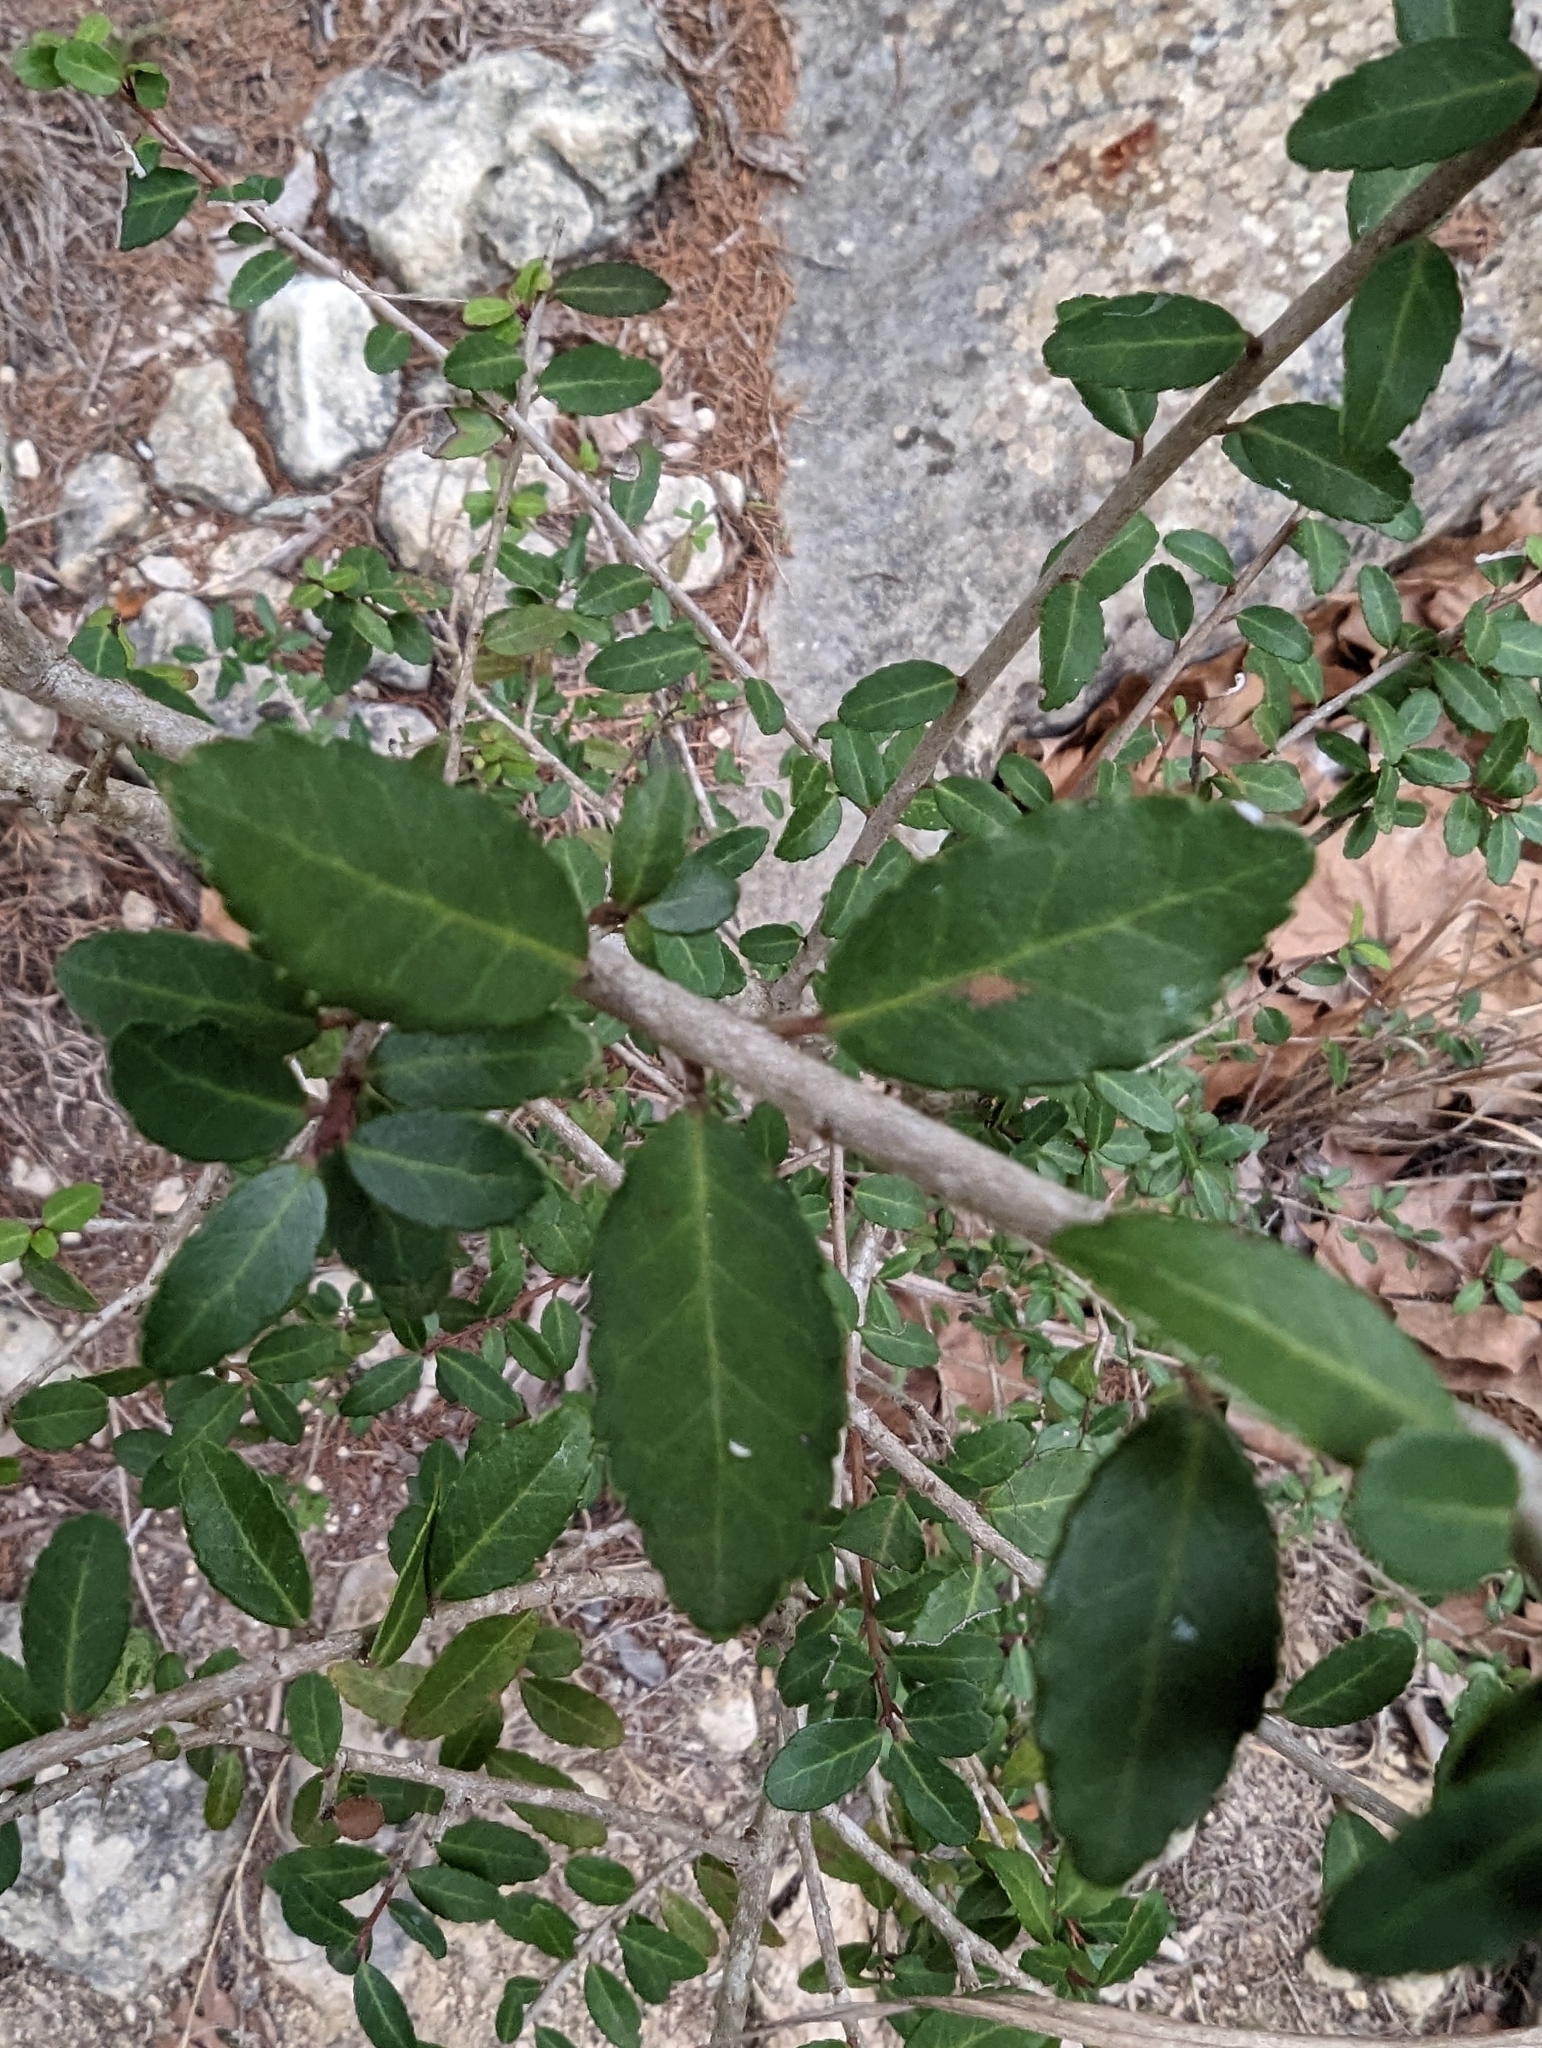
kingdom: Plantae
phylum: Tracheophyta
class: Magnoliopsida
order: Aquifoliales
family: Aquifoliaceae
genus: Ilex
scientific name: Ilex vomitoria
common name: Yaupon holly
